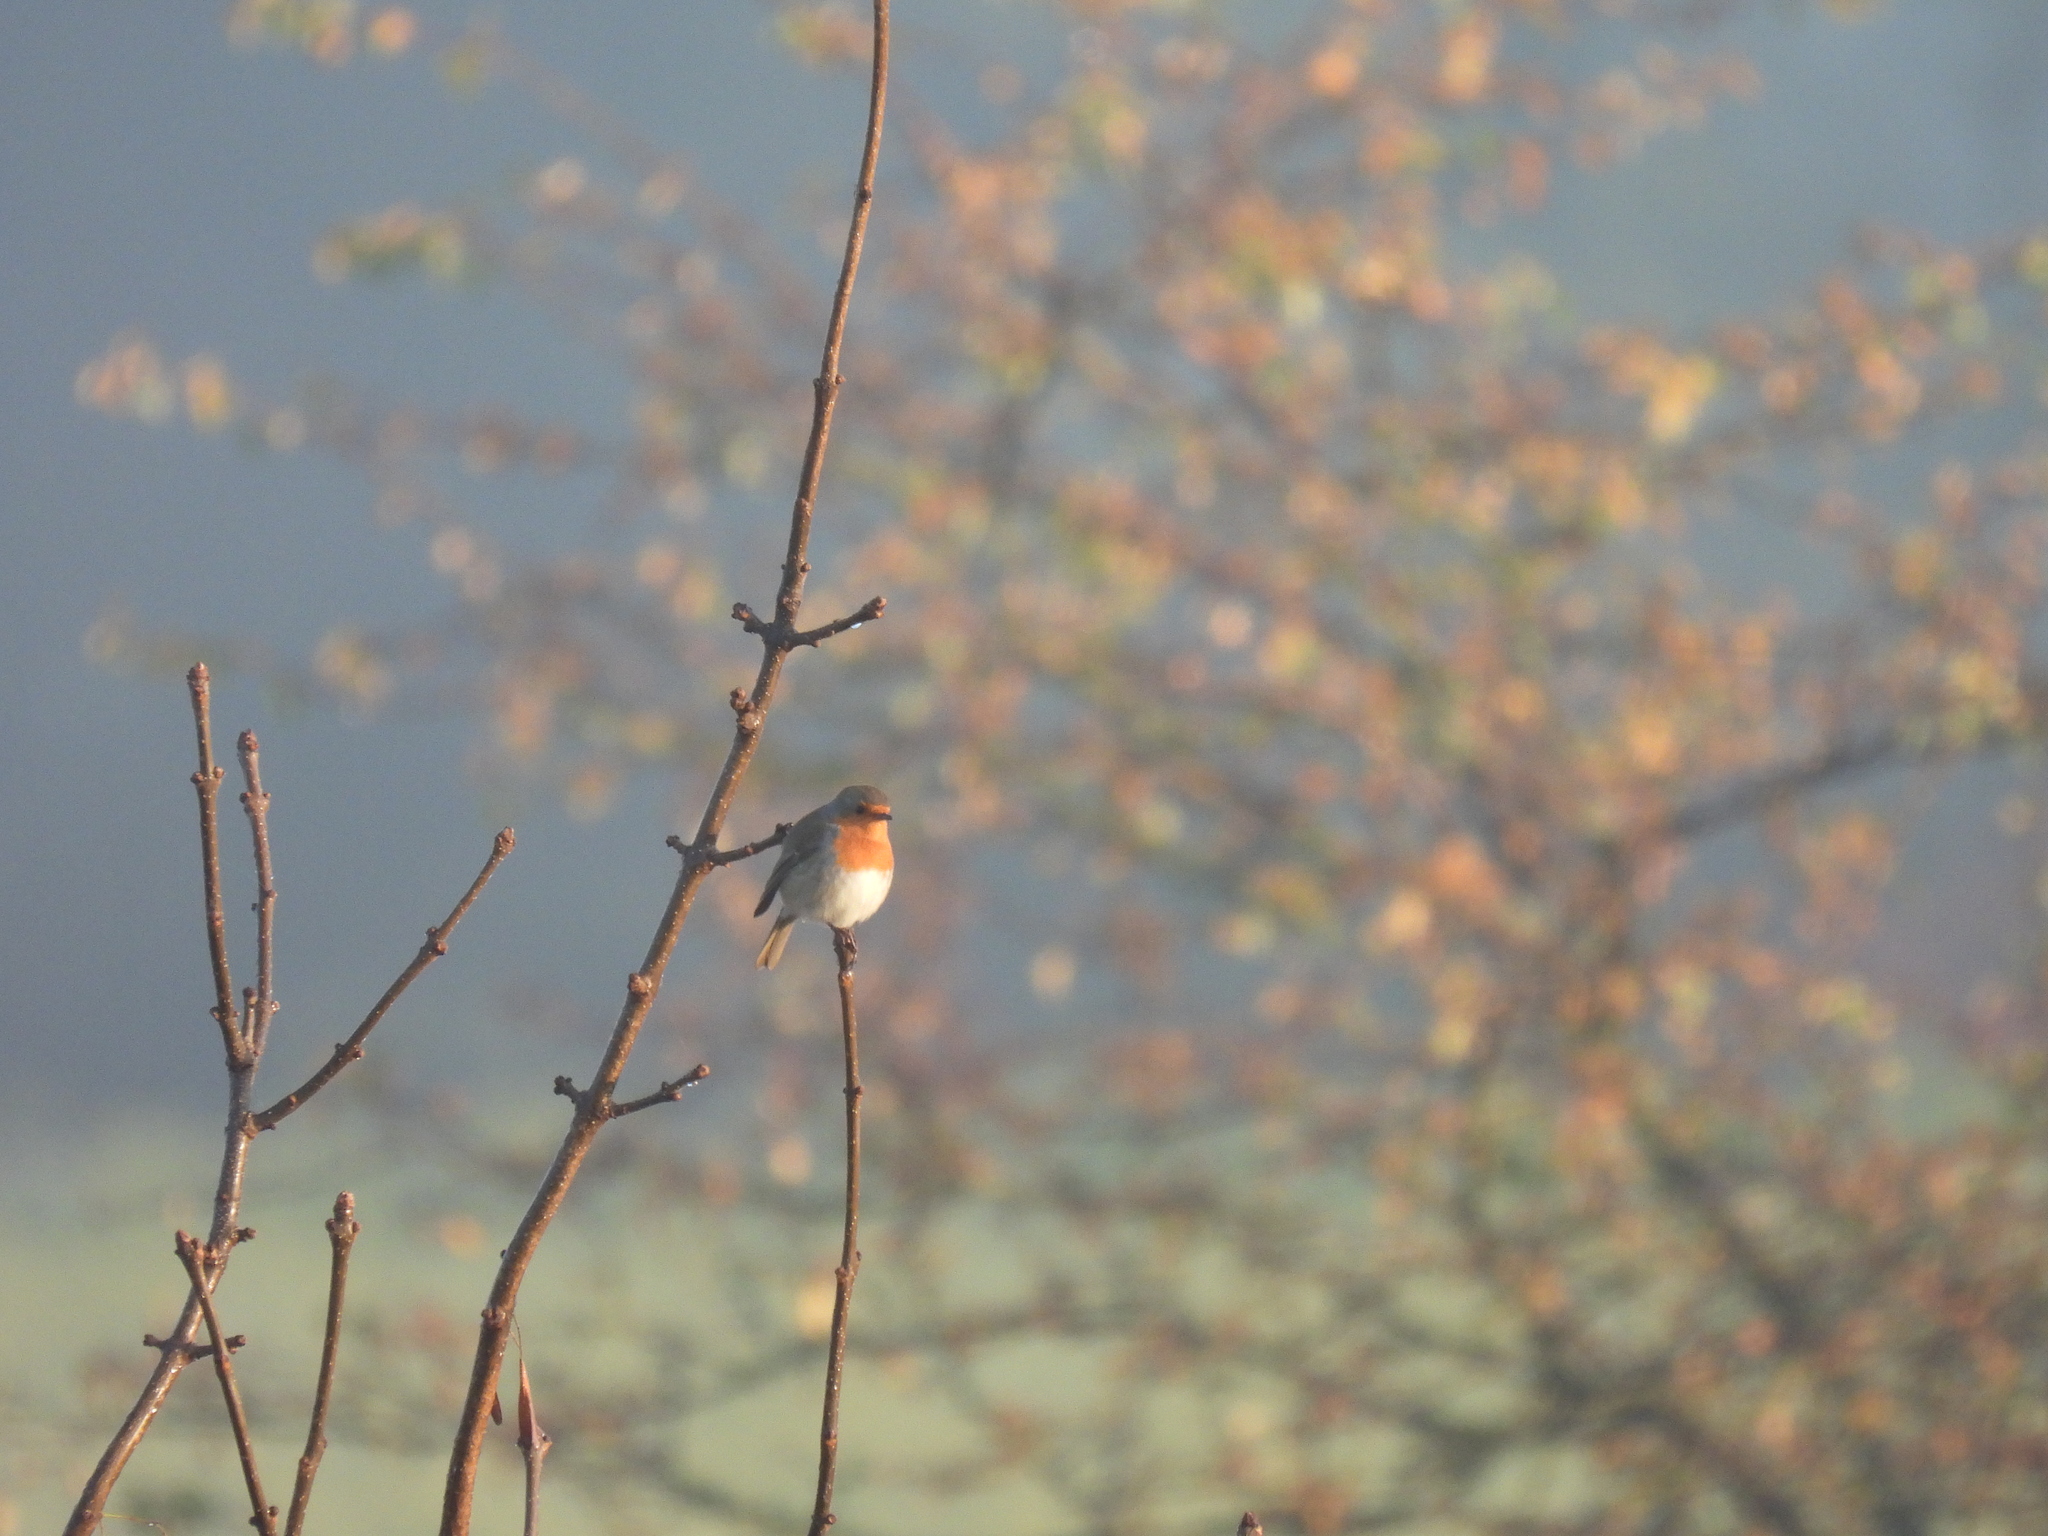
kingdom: Animalia
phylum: Chordata
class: Aves
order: Passeriformes
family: Muscicapidae
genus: Erithacus
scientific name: Erithacus rubecula
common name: European robin
